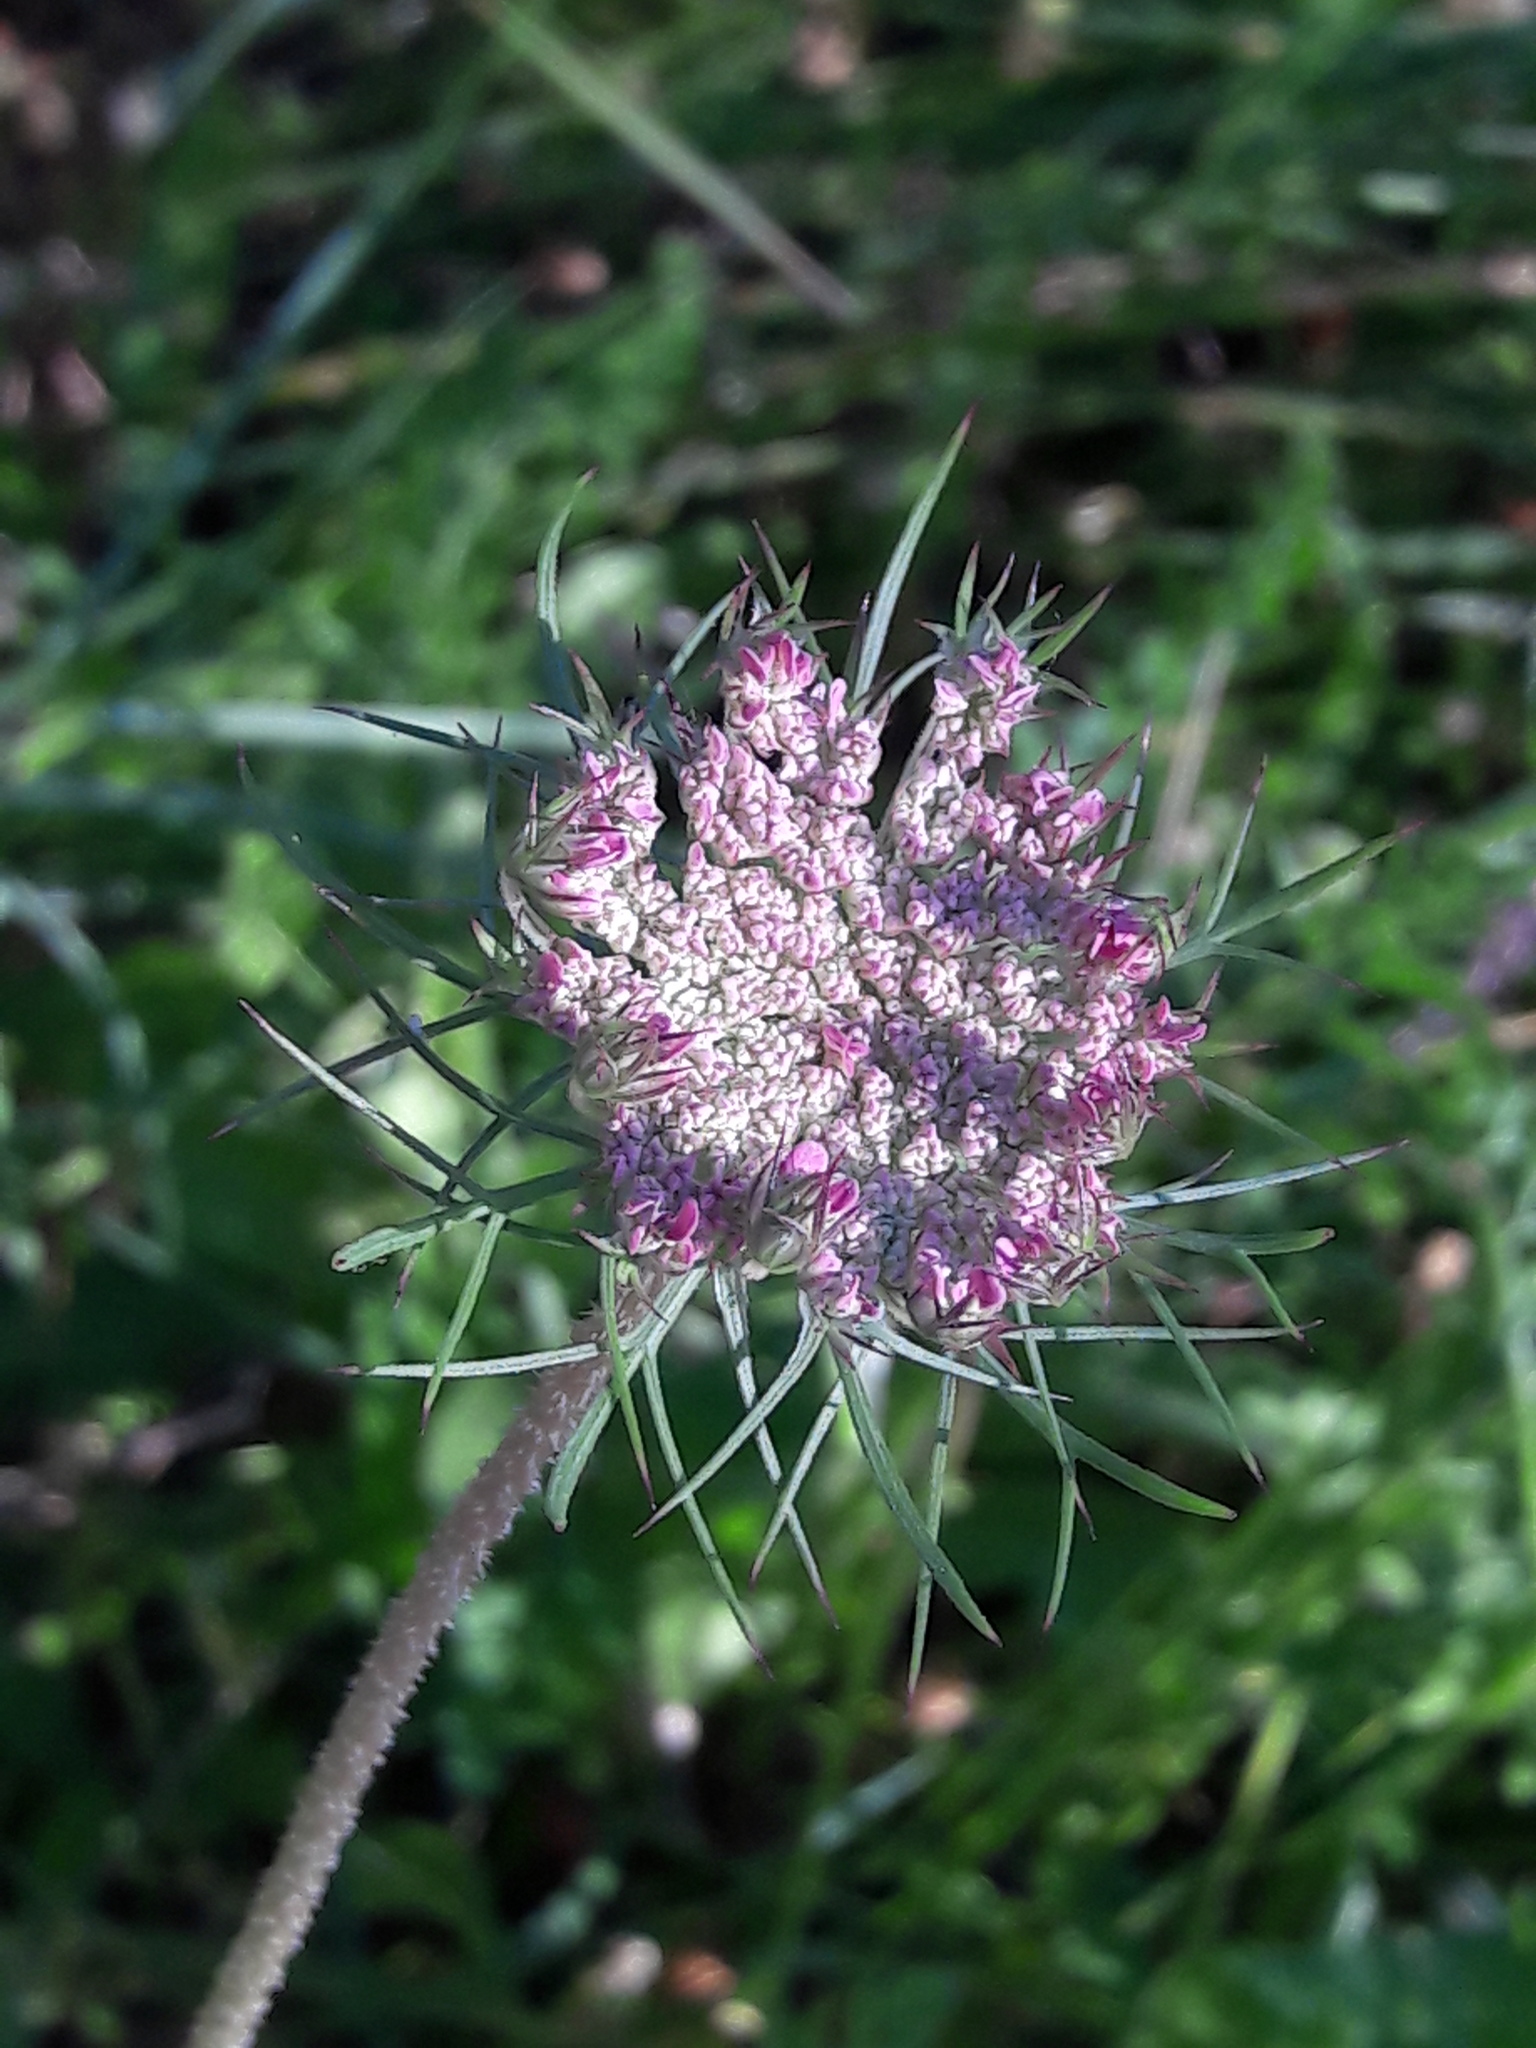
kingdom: Plantae
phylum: Tracheophyta
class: Magnoliopsida
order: Apiales
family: Apiaceae
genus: Daucus
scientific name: Daucus carota
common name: Wild carrot
